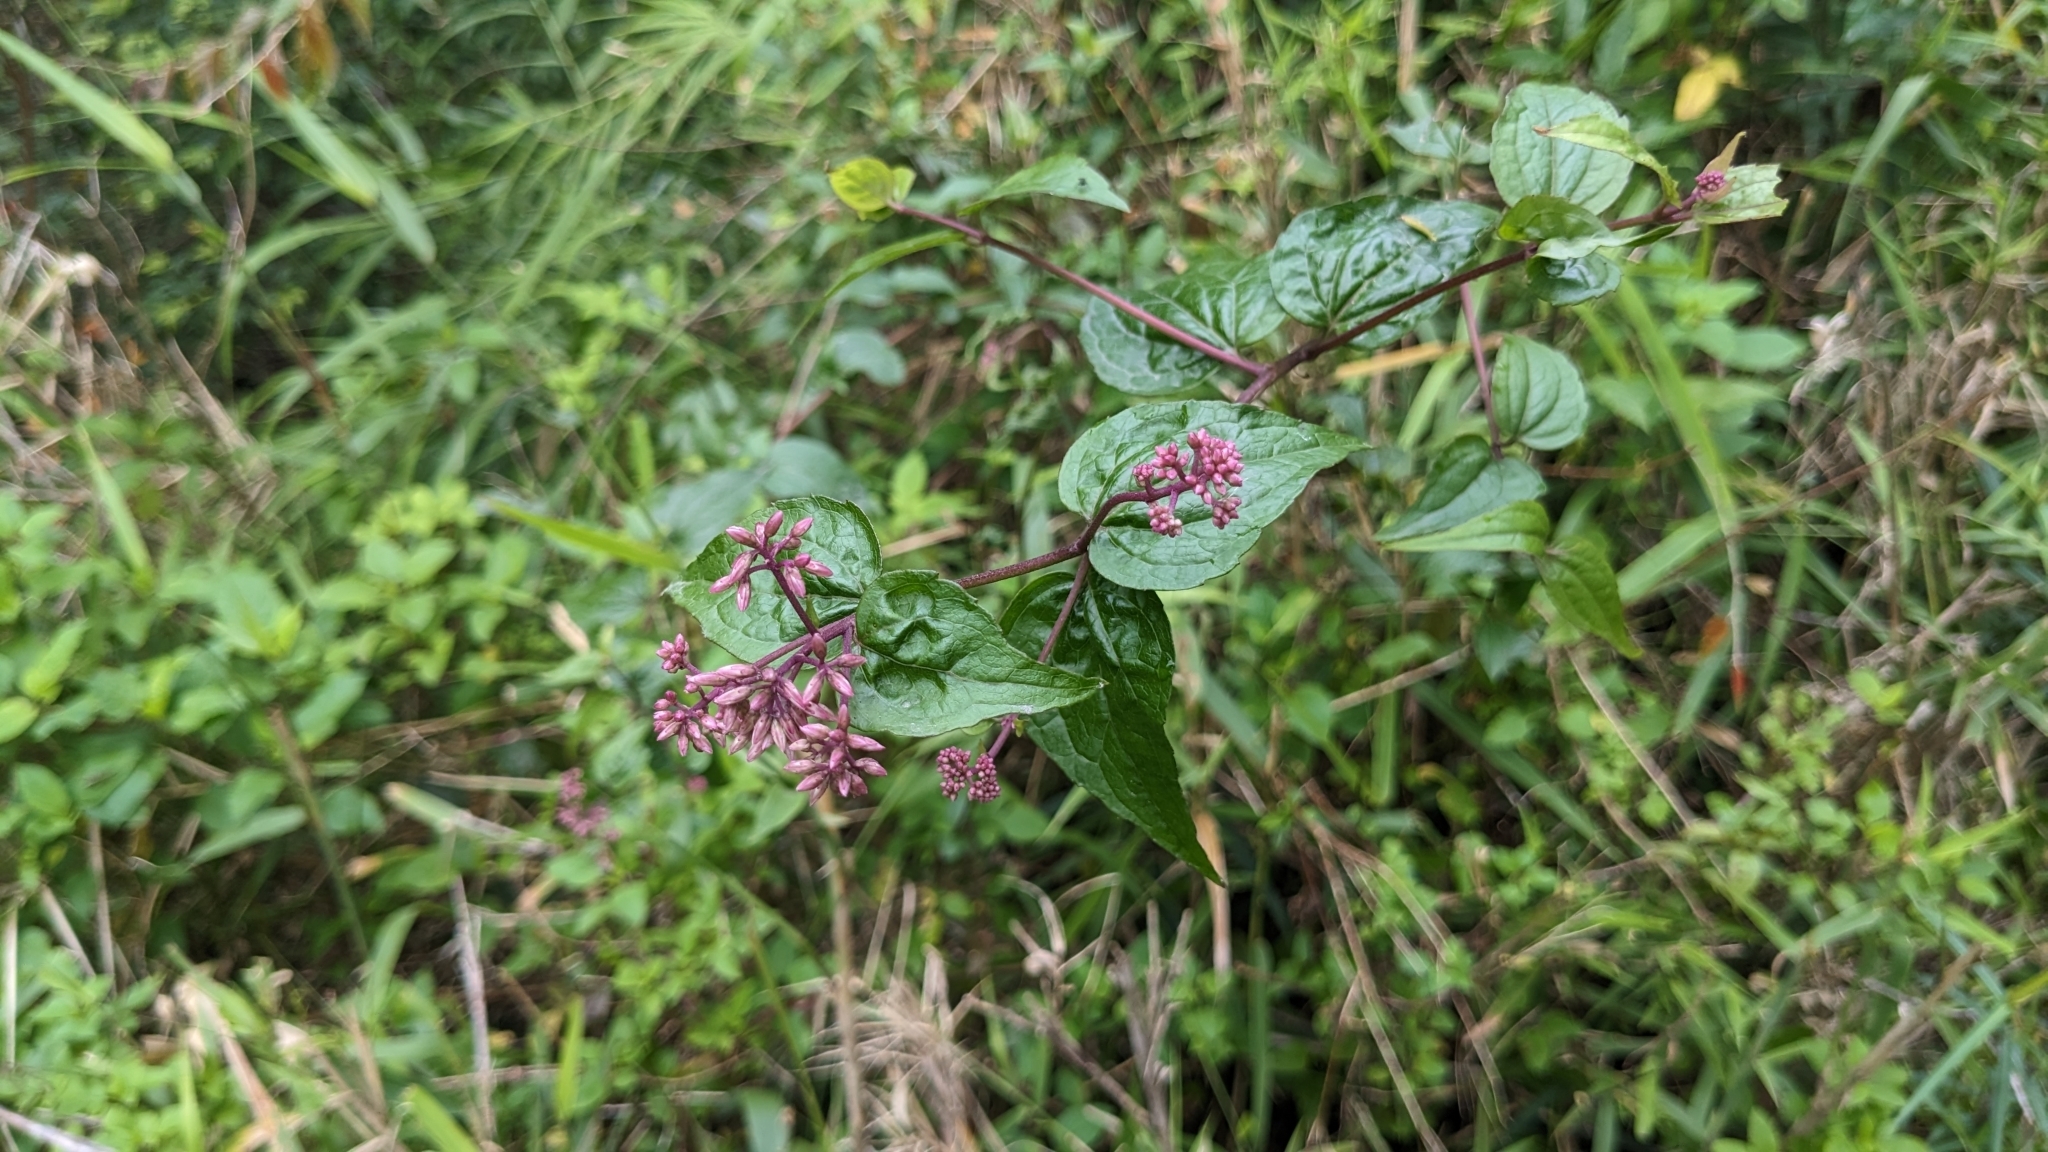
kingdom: Plantae
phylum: Tracheophyta
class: Magnoliopsida
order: Asterales
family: Asteraceae
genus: Eupatorium
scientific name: Eupatorium amabile
